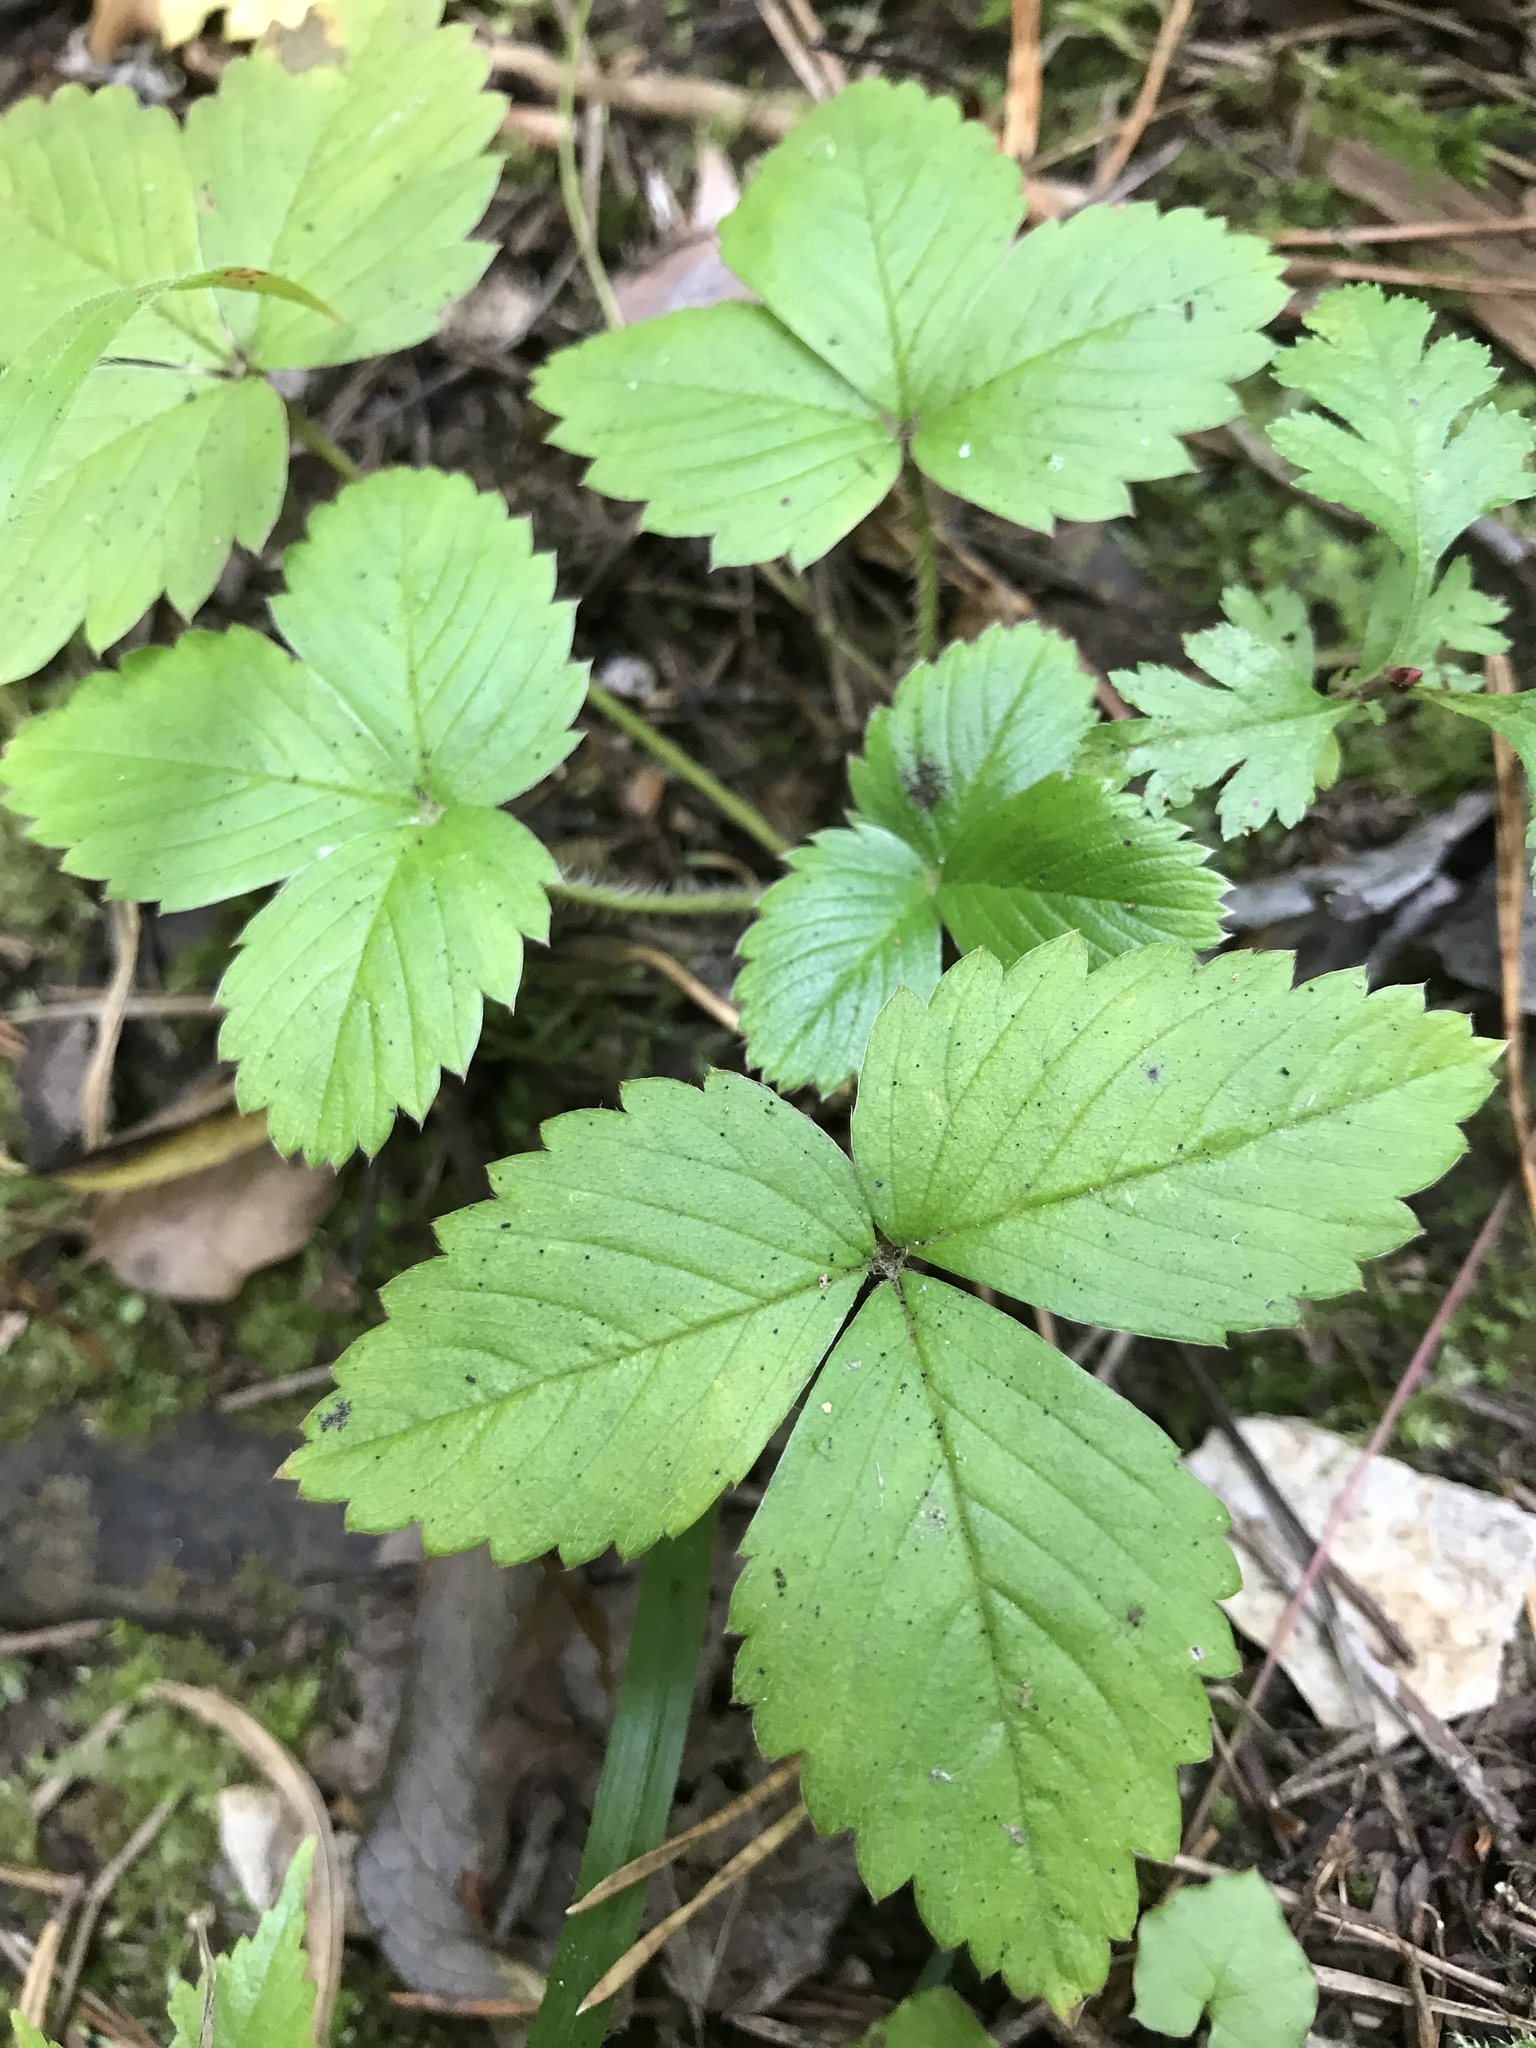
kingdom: Plantae
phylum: Tracheophyta
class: Magnoliopsida
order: Rosales
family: Rosaceae
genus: Fragaria
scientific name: Fragaria vesca
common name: Wild strawberry
